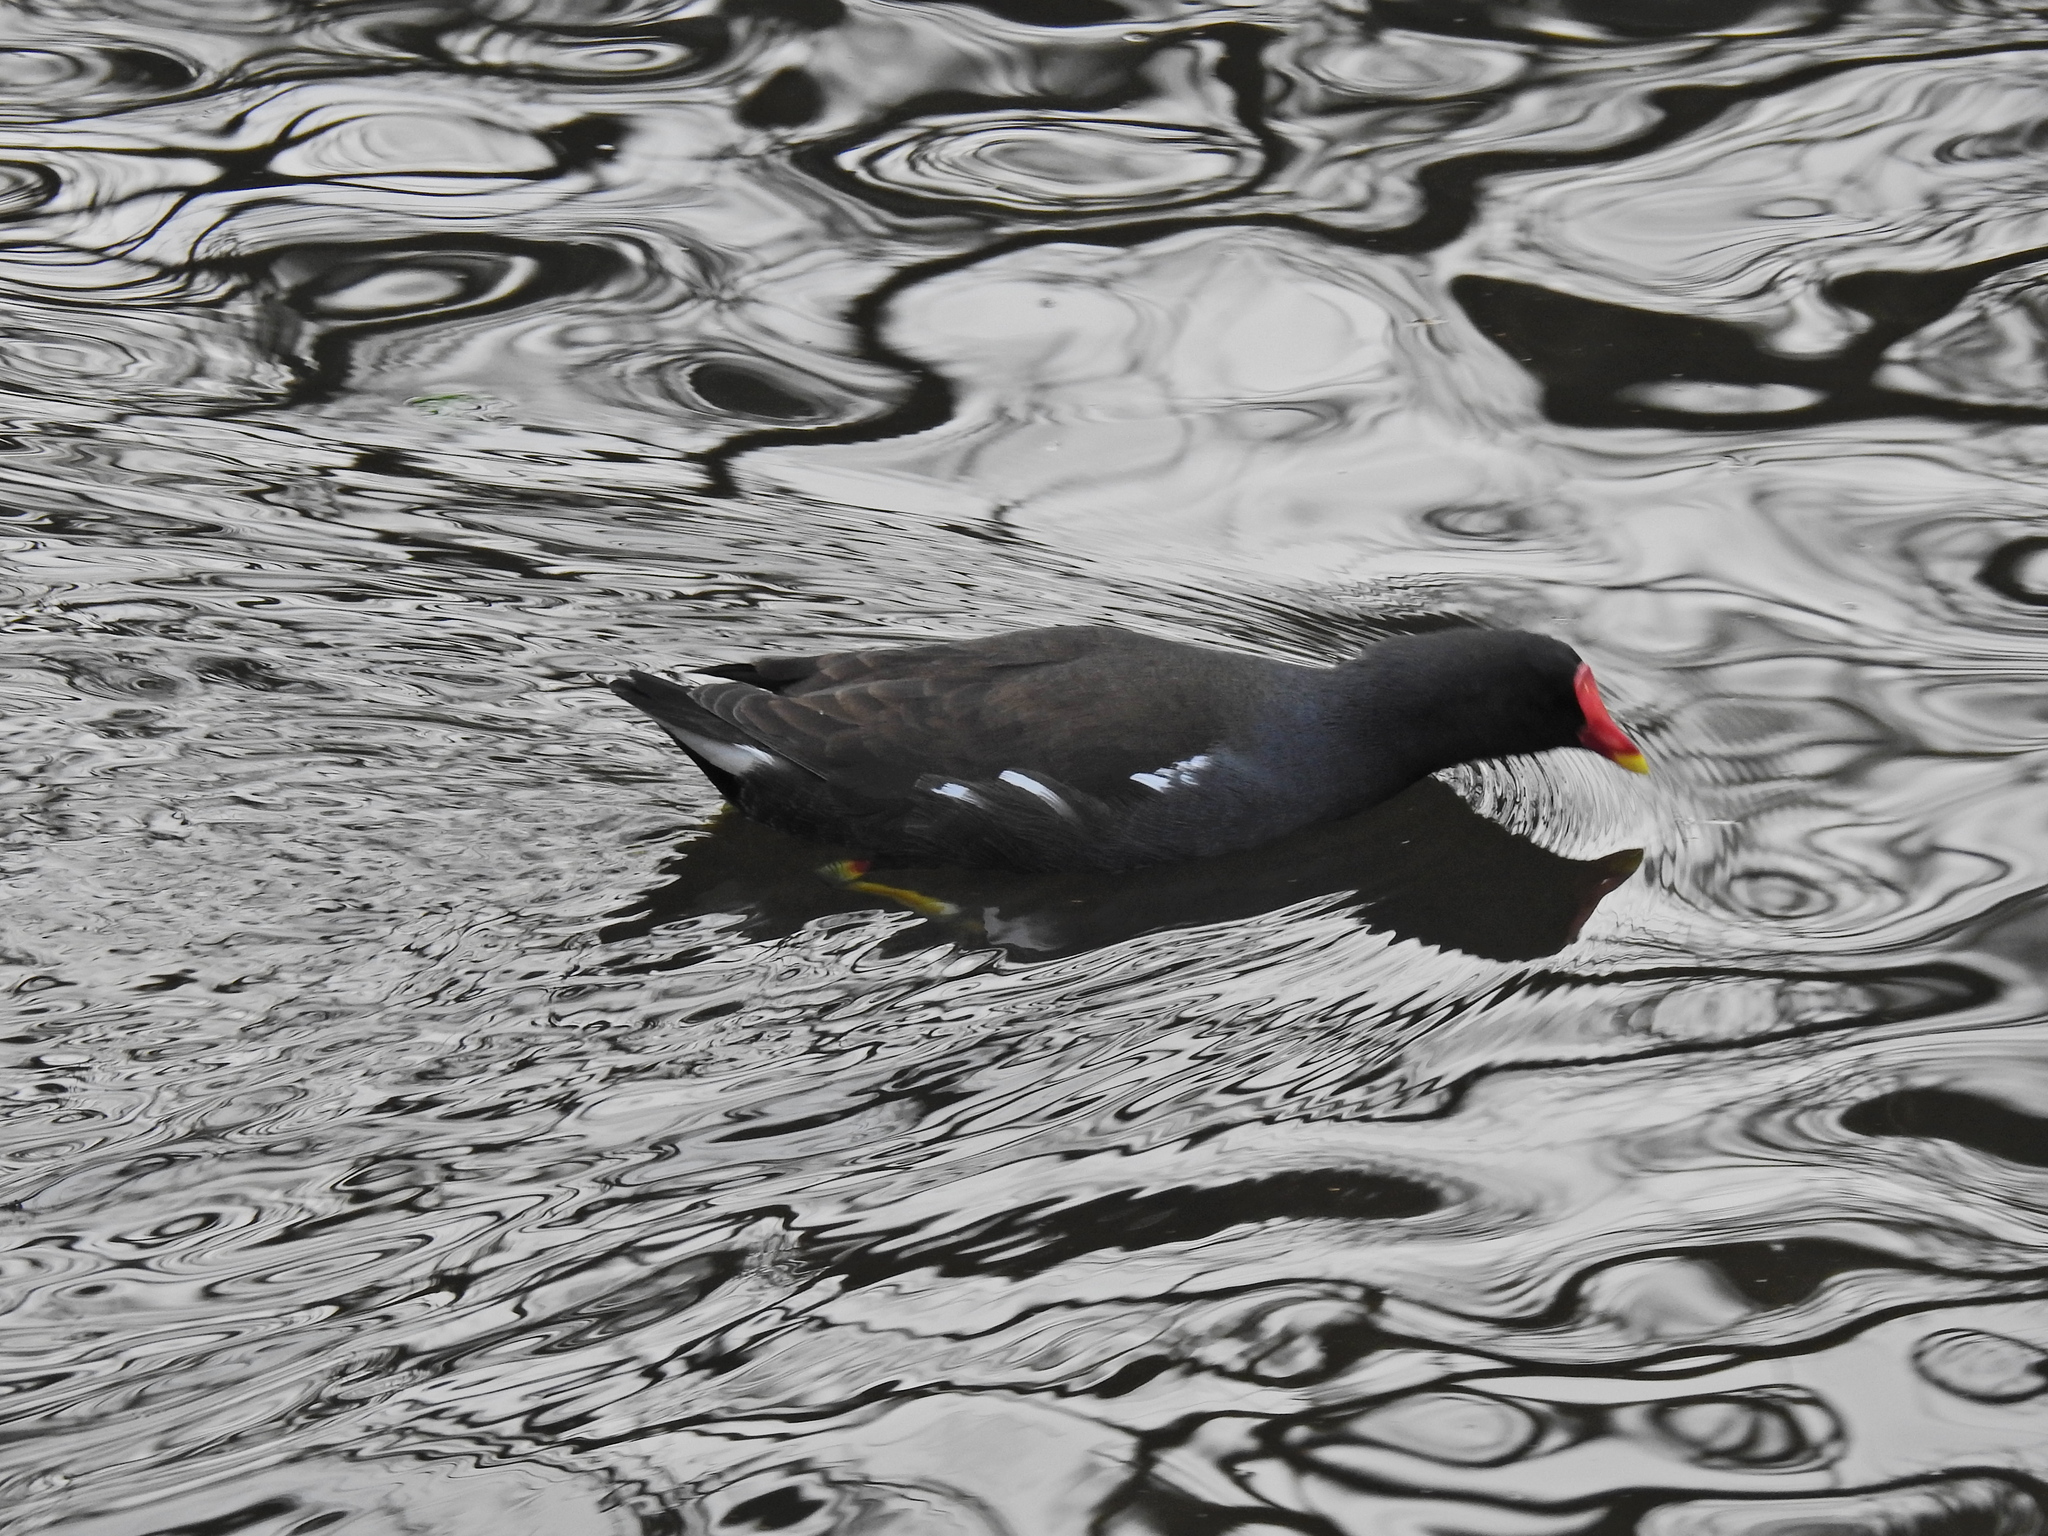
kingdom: Animalia
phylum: Chordata
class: Aves
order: Gruiformes
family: Rallidae
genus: Gallinula
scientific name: Gallinula chloropus
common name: Common moorhen
